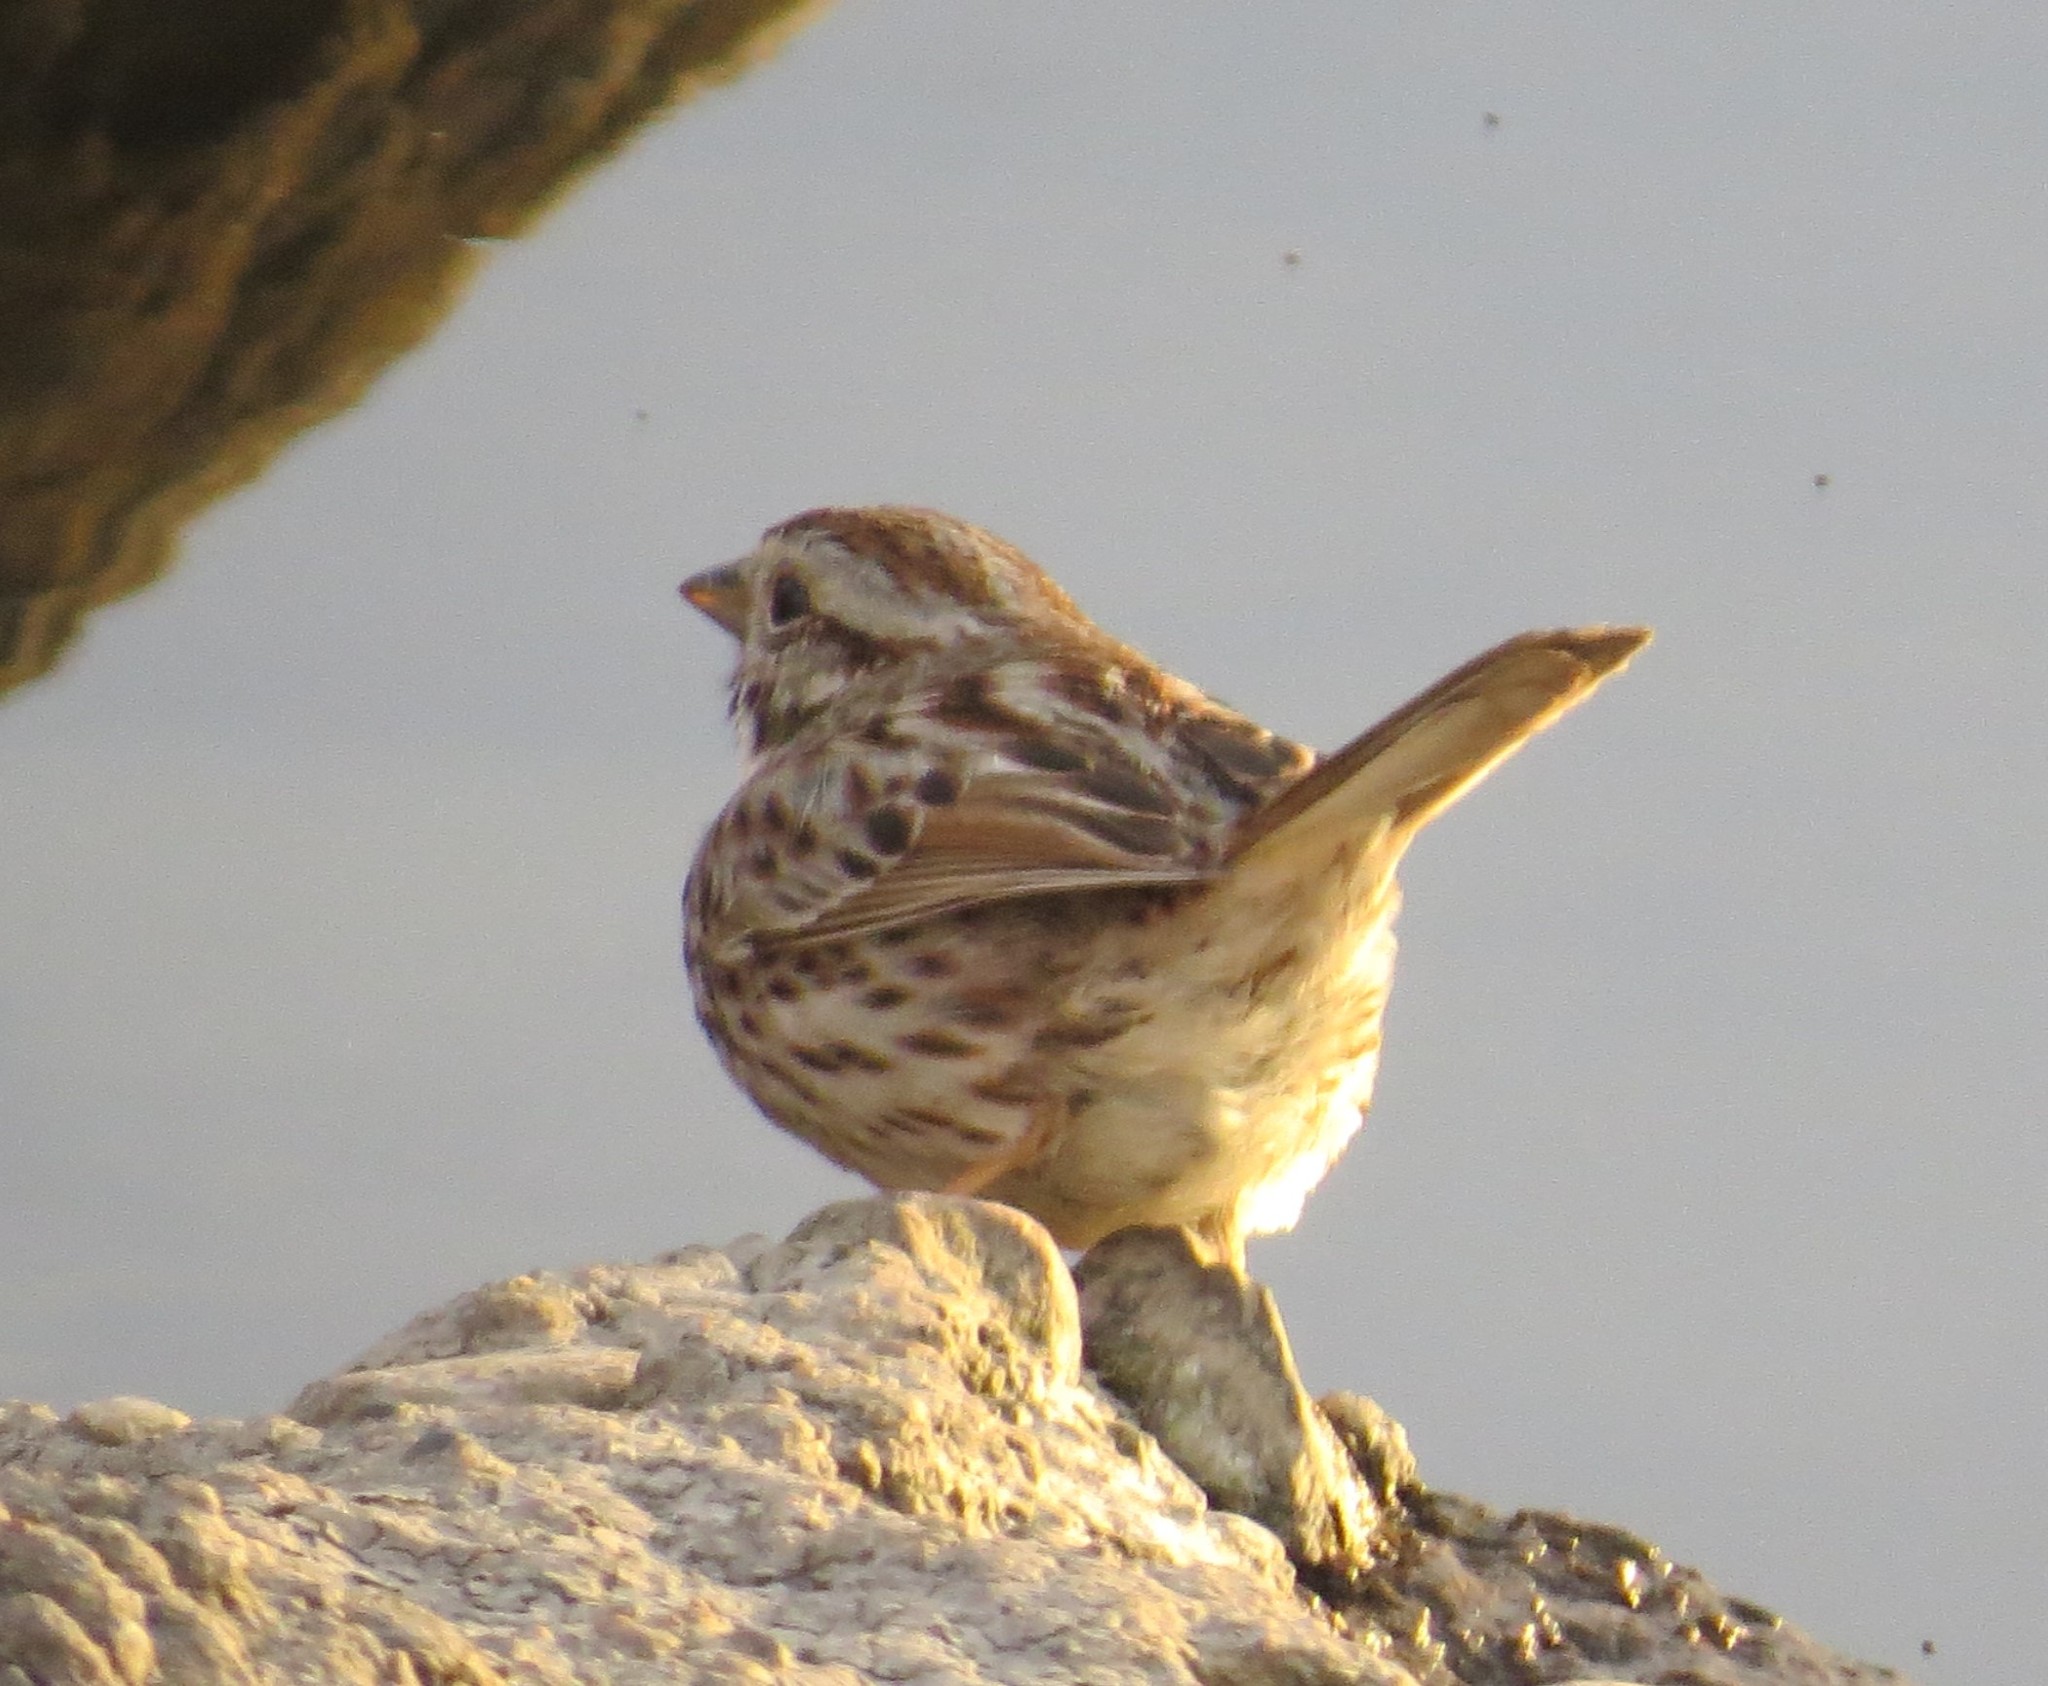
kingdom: Animalia
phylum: Chordata
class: Aves
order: Passeriformes
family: Passerellidae
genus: Melospiza
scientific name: Melospiza melodia
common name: Song sparrow
